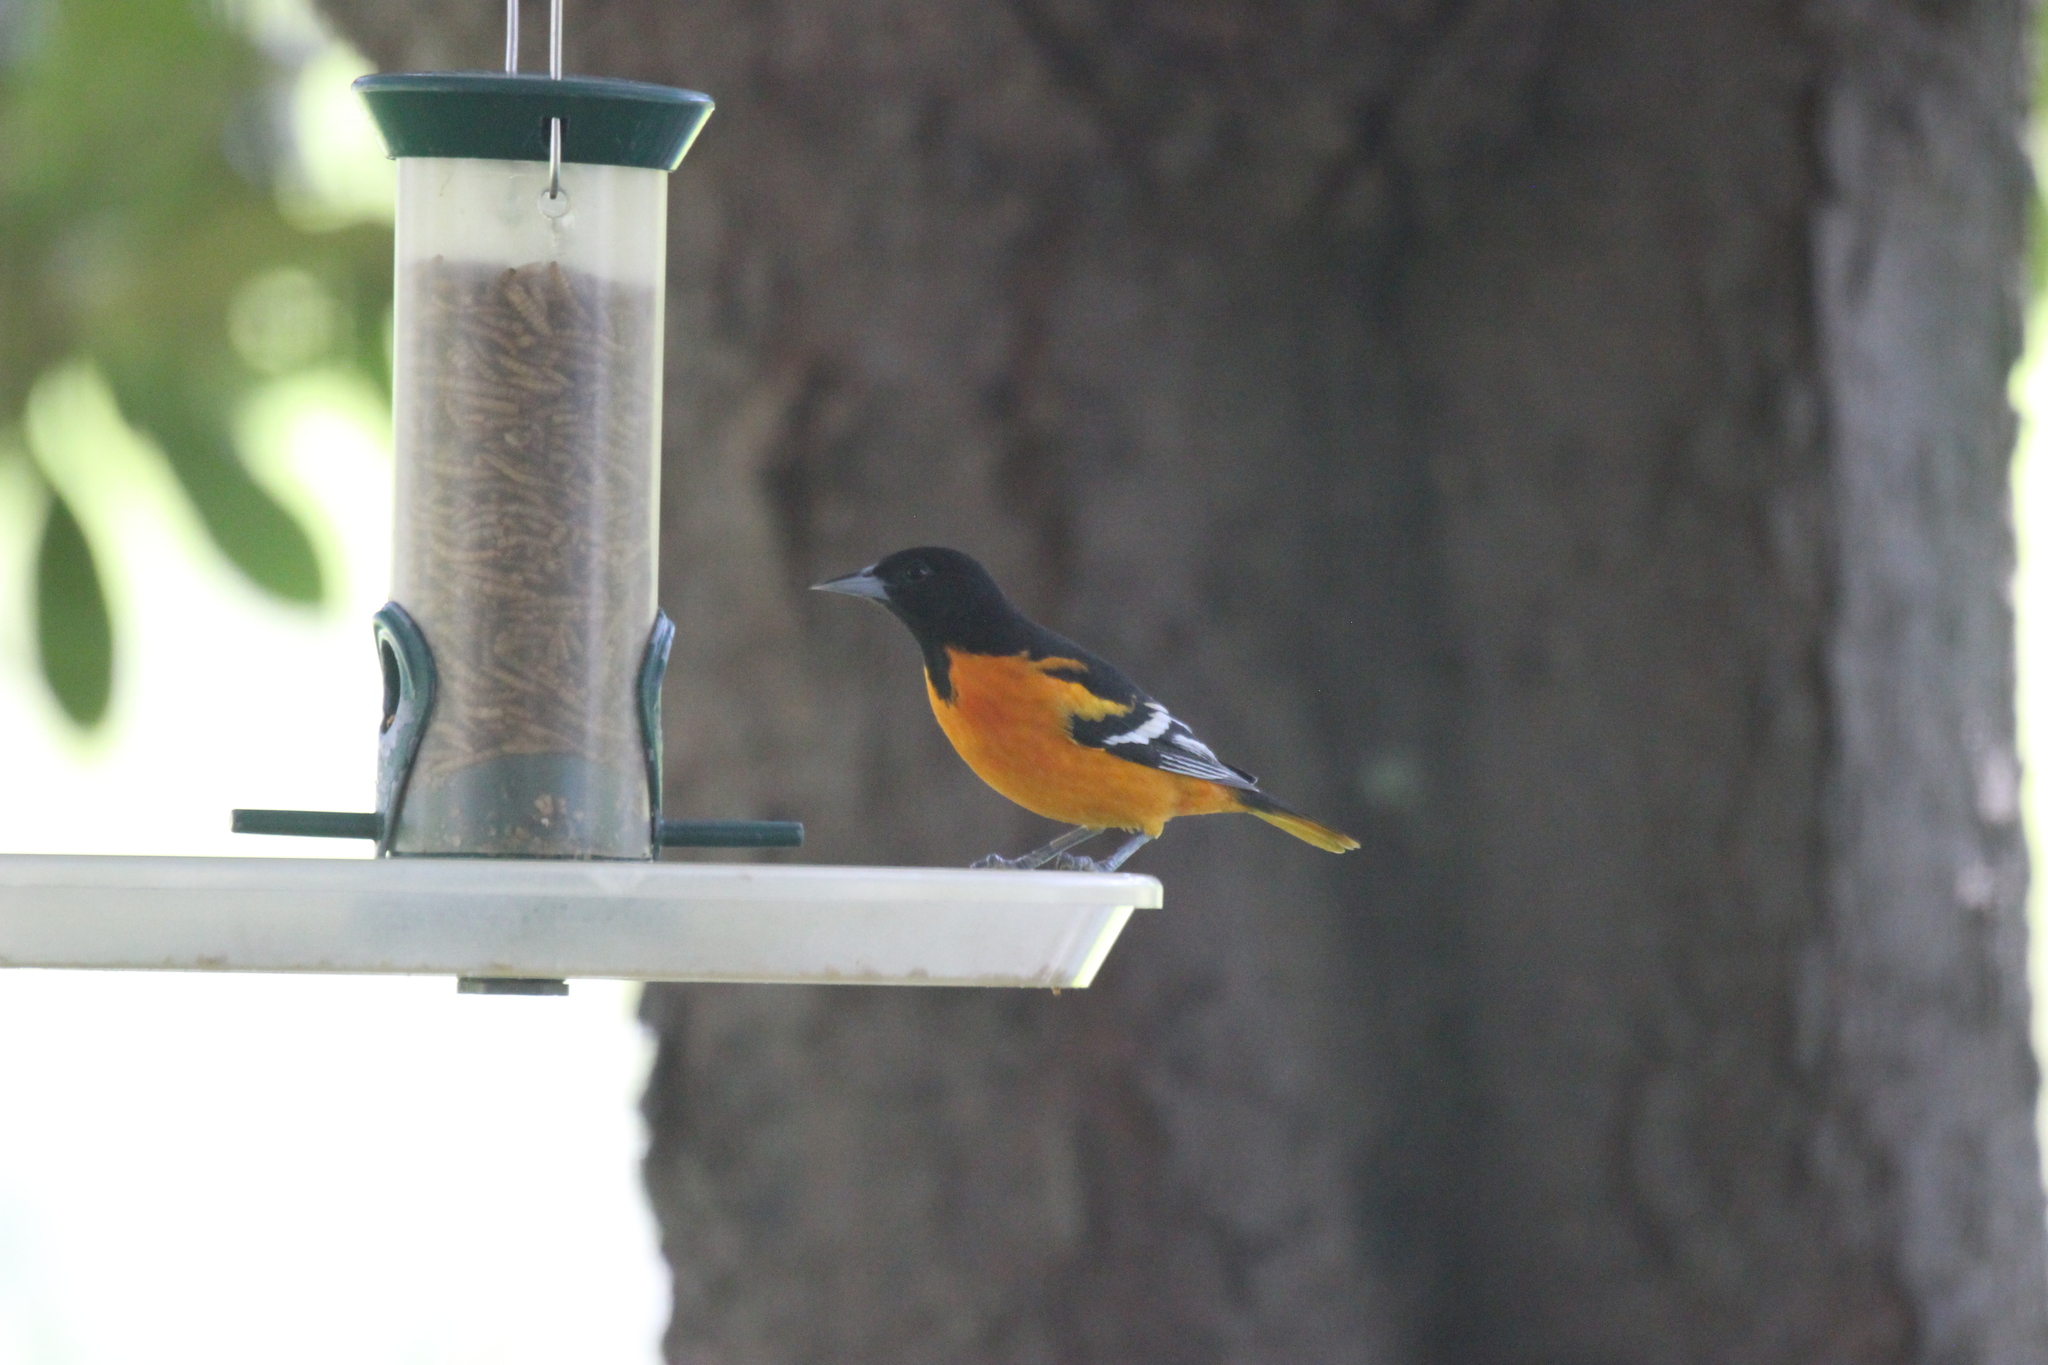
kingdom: Animalia
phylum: Chordata
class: Aves
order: Passeriformes
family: Icteridae
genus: Icterus
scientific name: Icterus galbula
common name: Baltimore oriole
